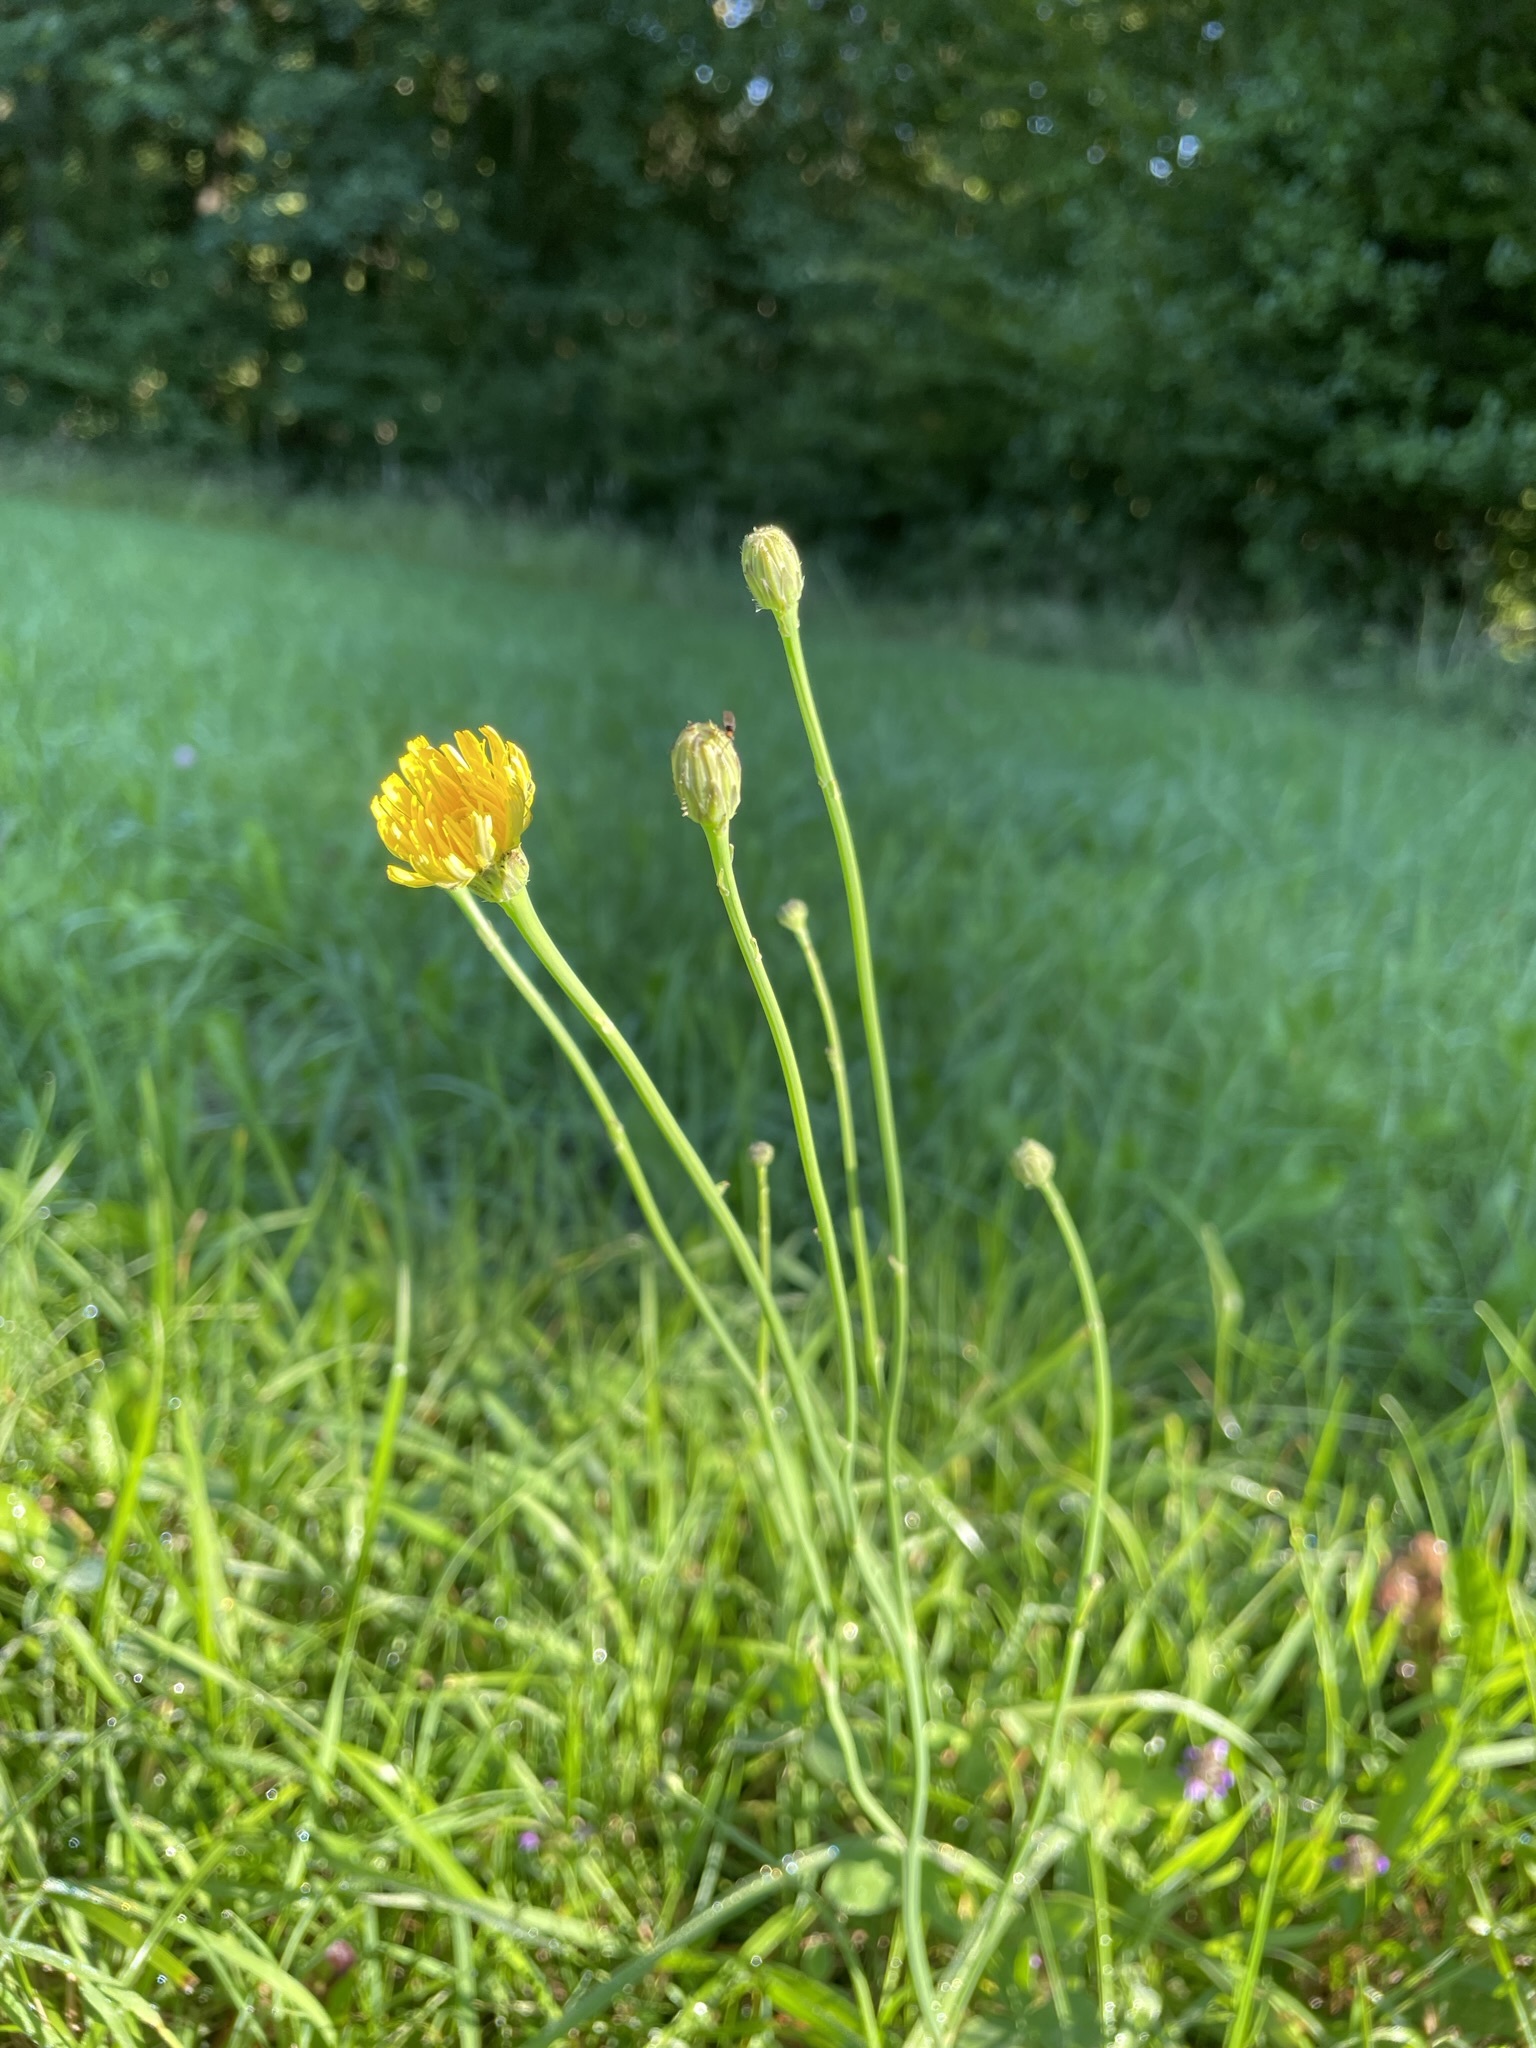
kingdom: Plantae
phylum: Tracheophyta
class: Magnoliopsida
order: Asterales
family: Asteraceae
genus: Hypochaeris
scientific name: Hypochaeris radicata
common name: Flatweed
